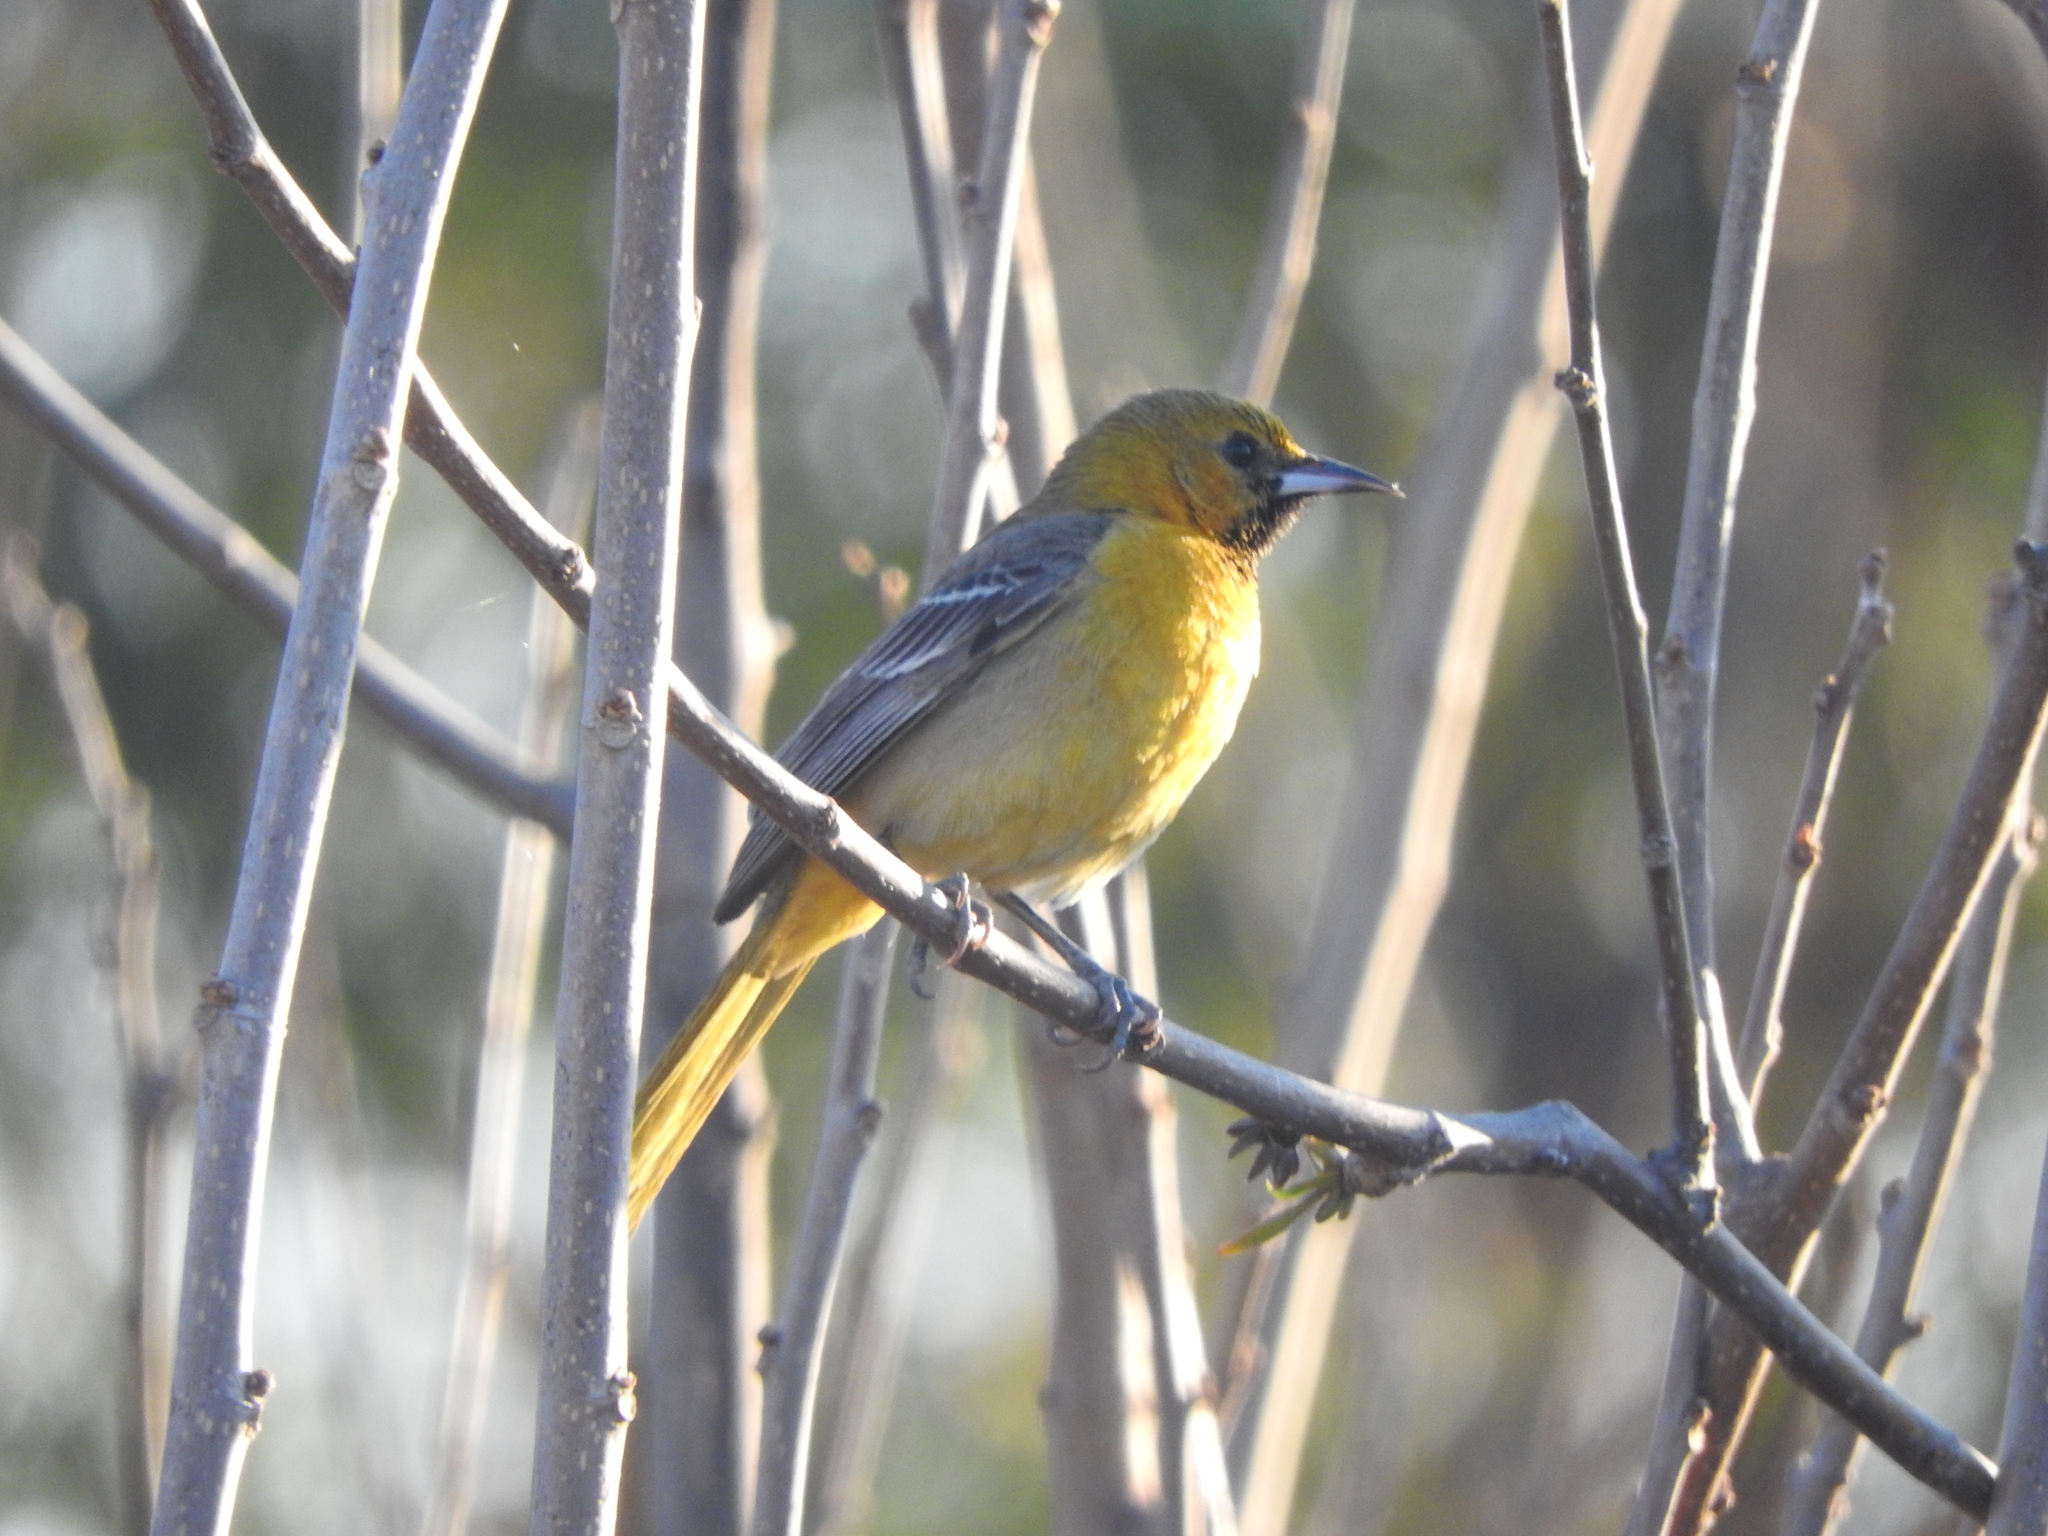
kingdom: Animalia
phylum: Chordata
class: Aves
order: Passeriformes
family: Icteridae
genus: Icterus
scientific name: Icterus cucullatus
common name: Hooded oriole
